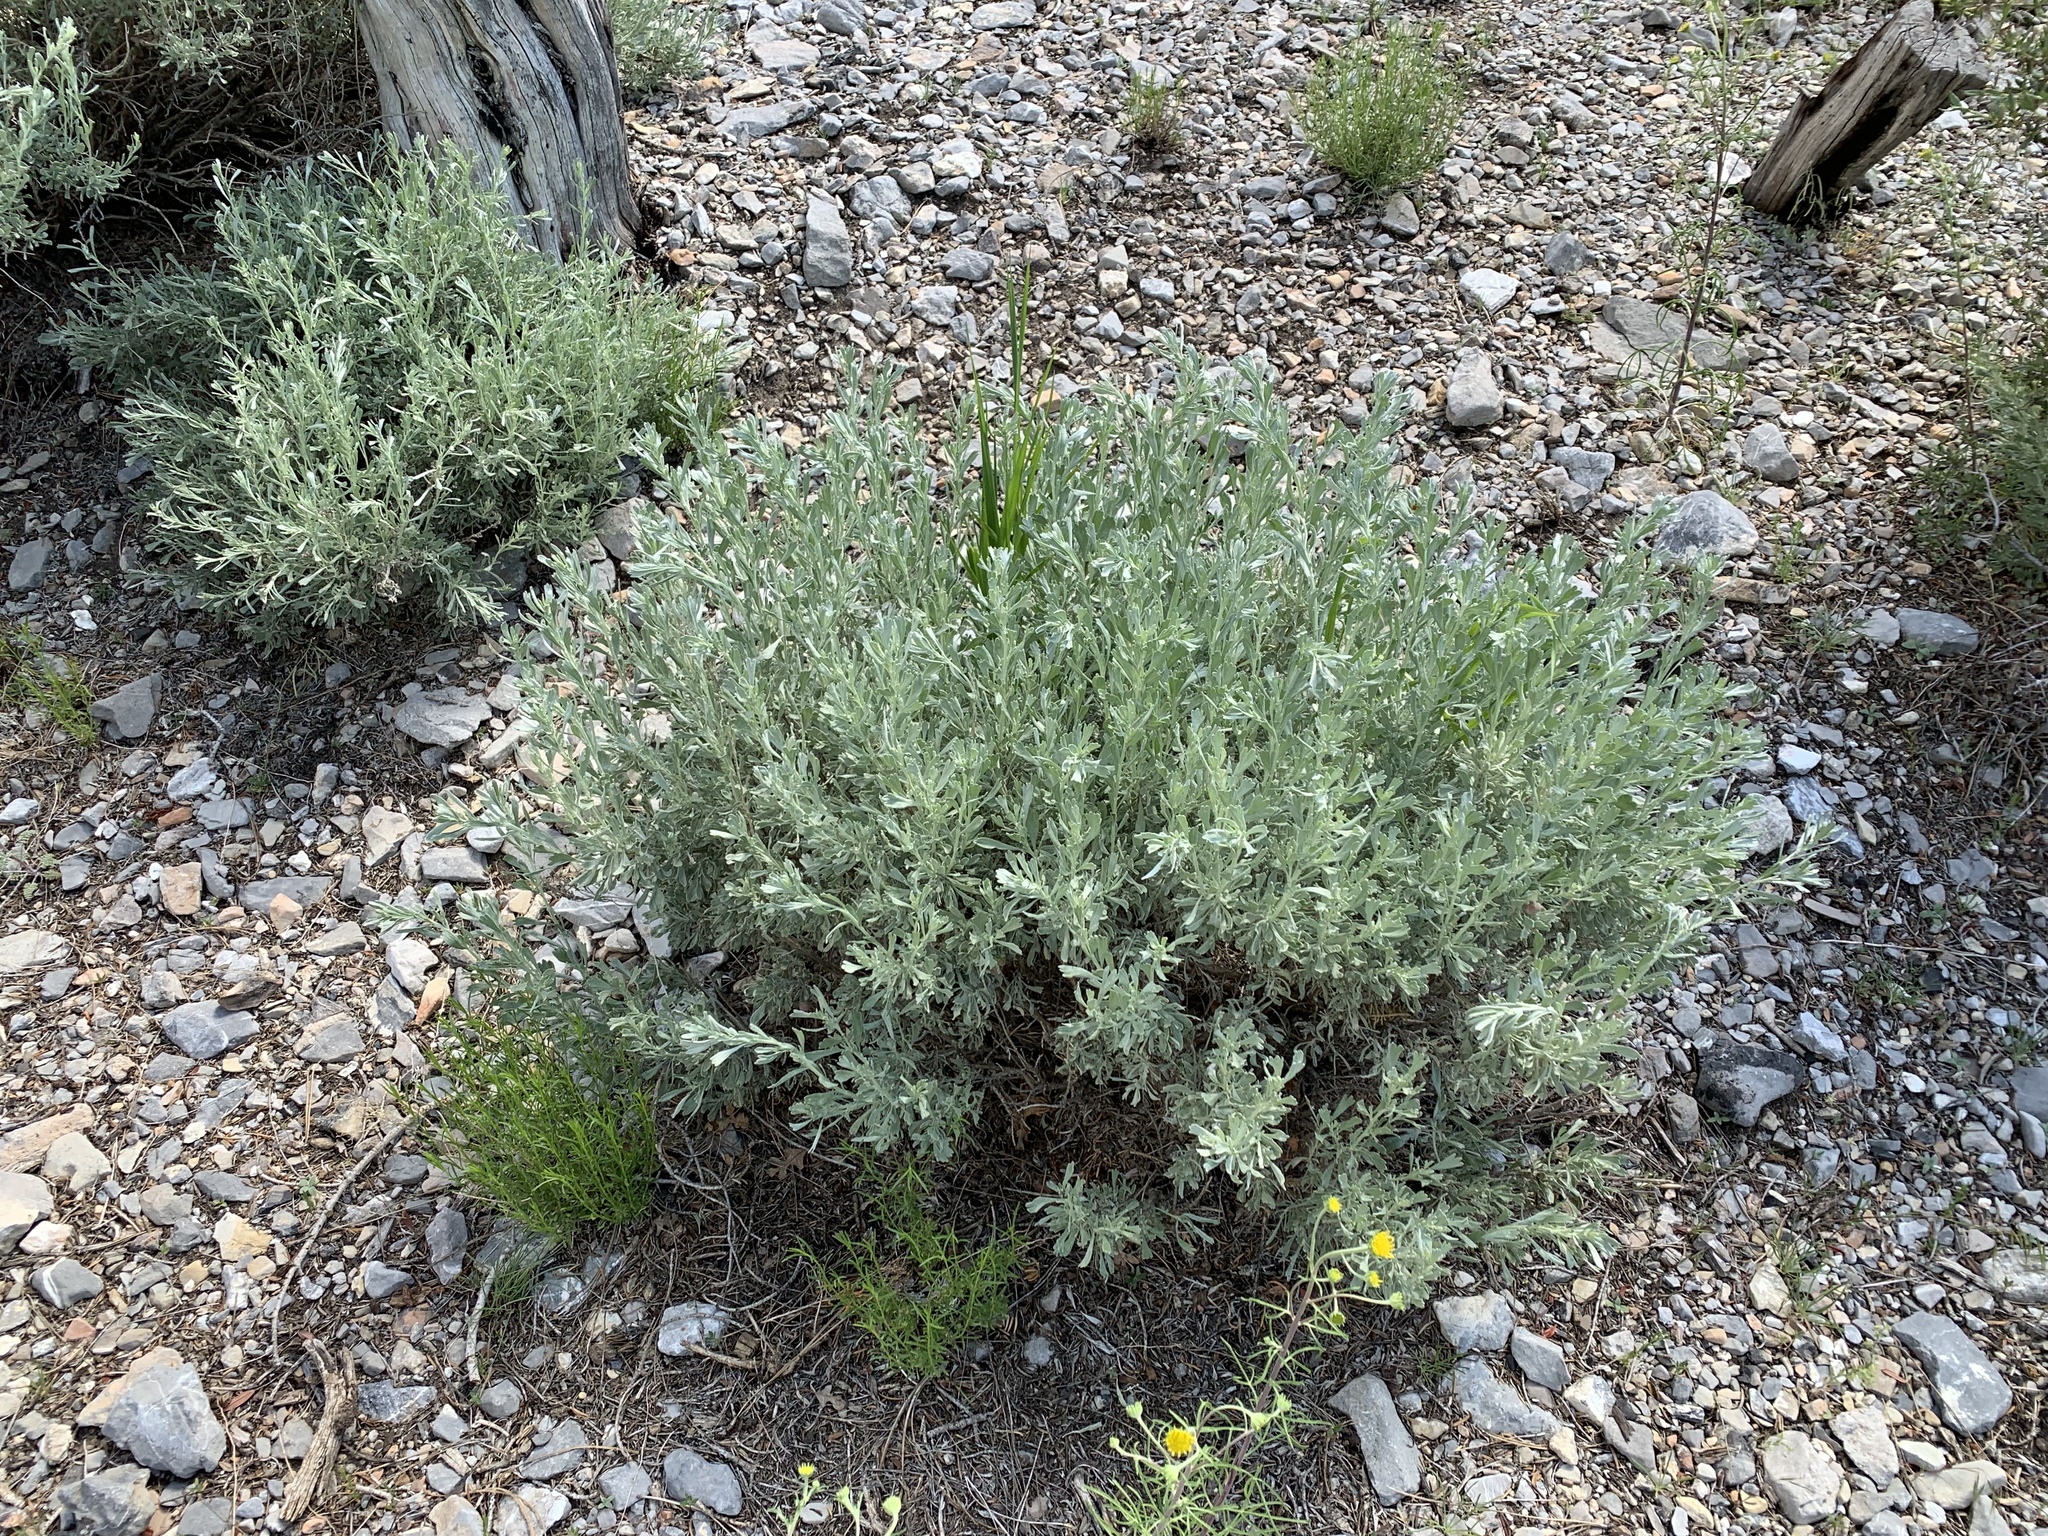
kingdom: Plantae
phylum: Tracheophyta
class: Magnoliopsida
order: Asterales
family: Asteraceae
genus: Artemisia
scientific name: Artemisia tridentata
